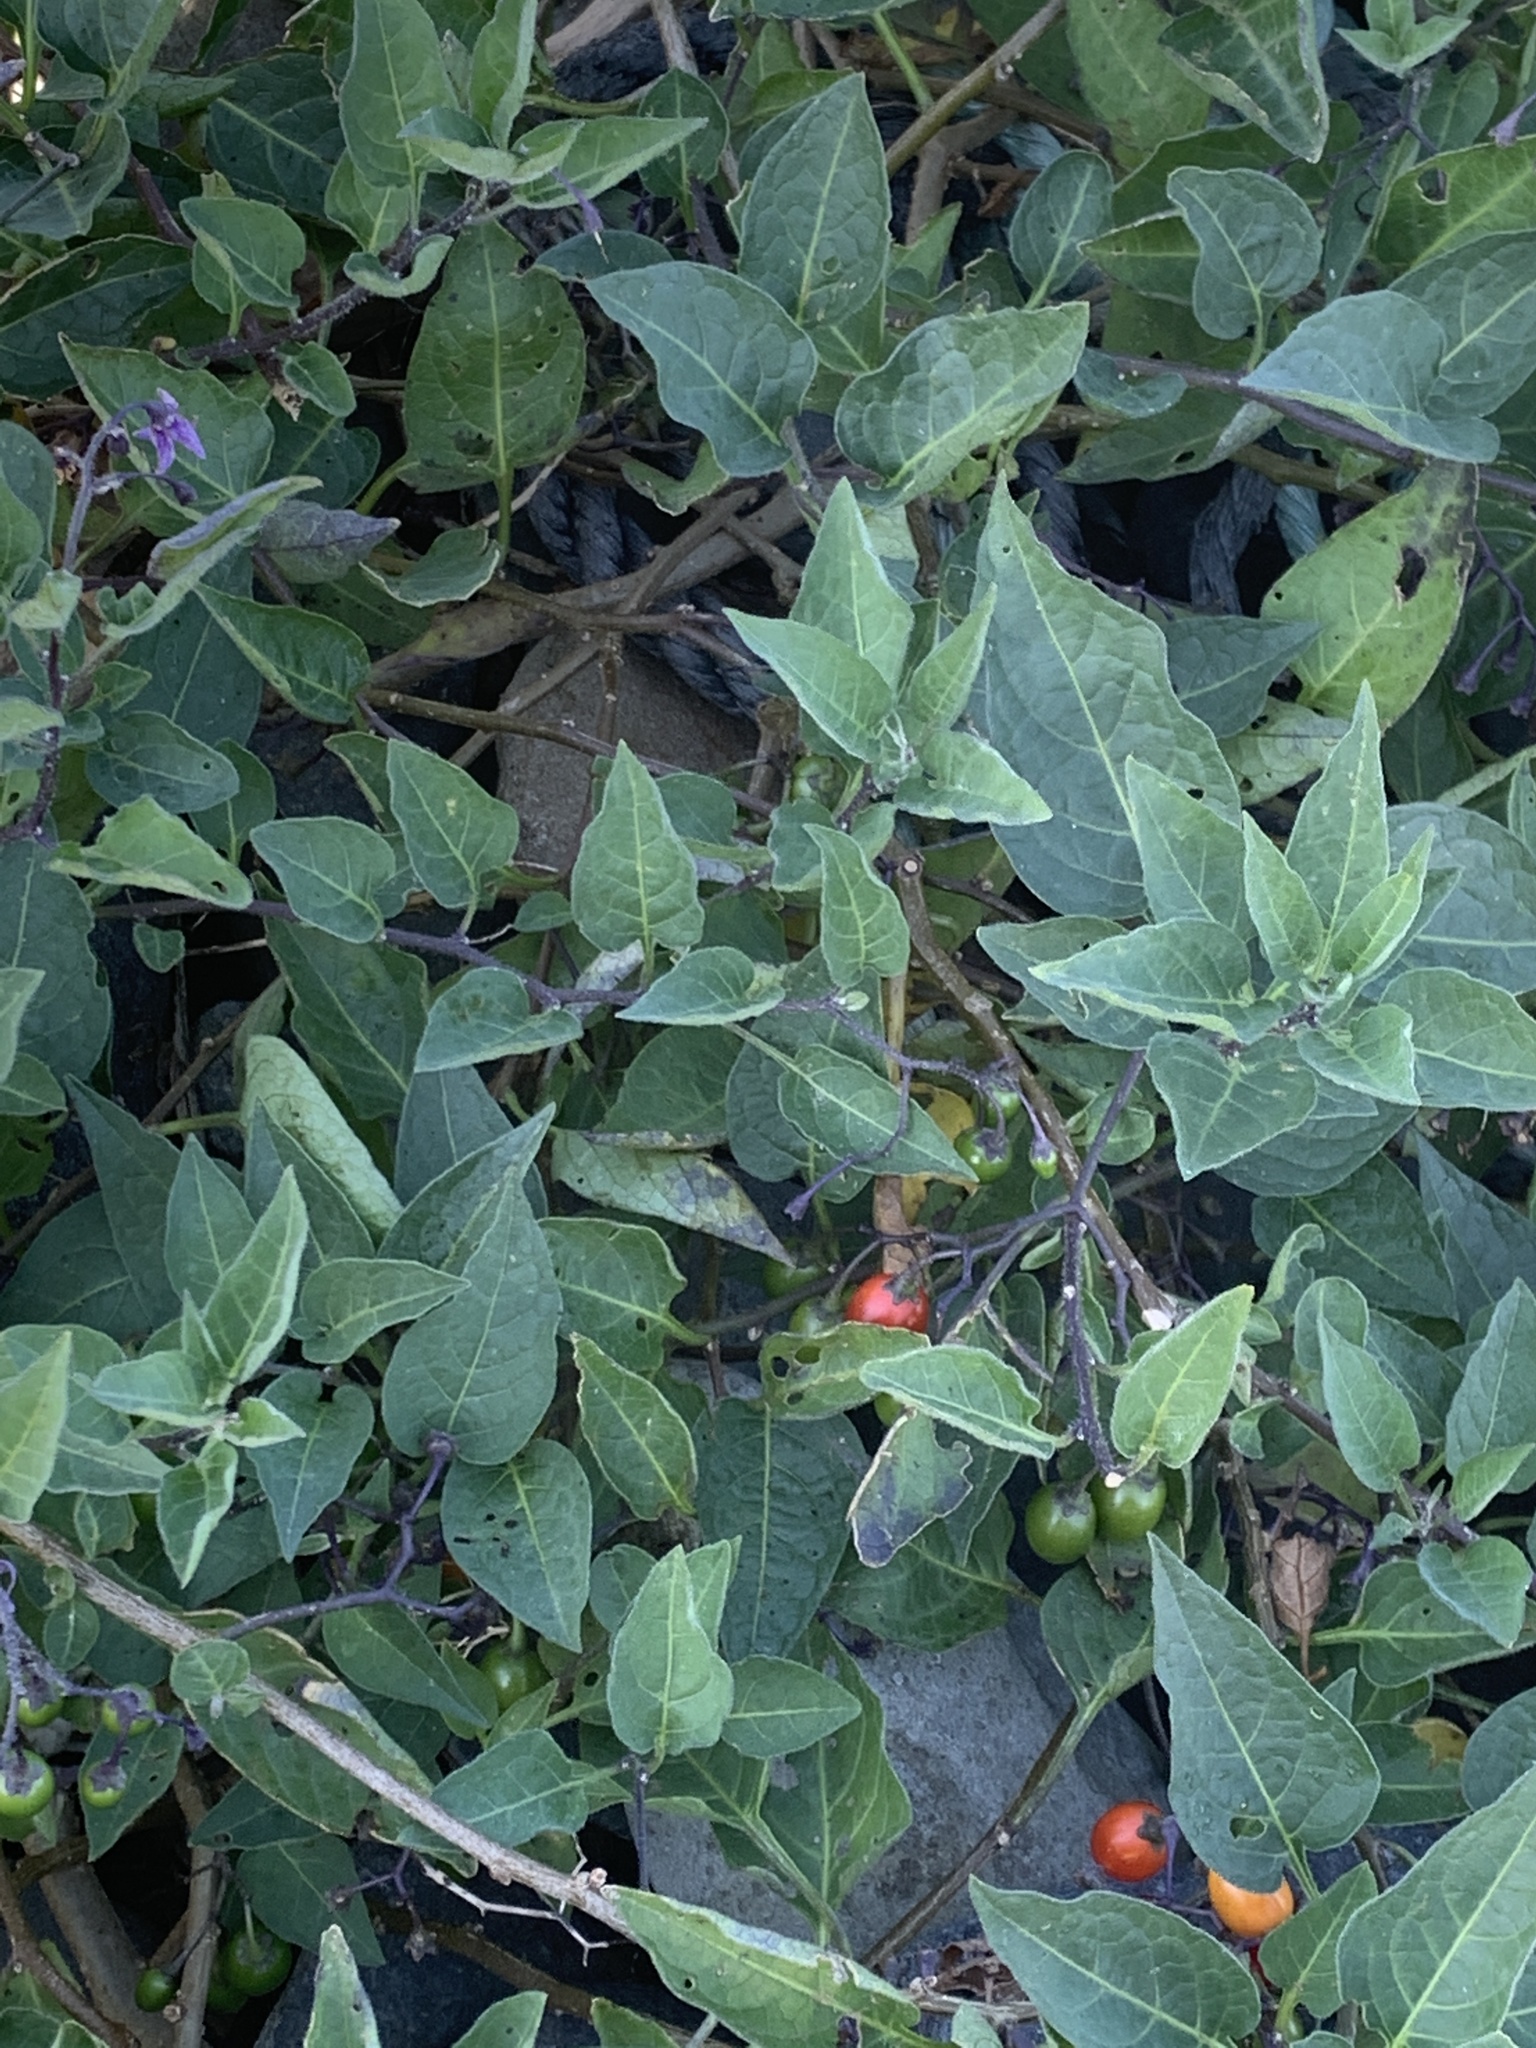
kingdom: Plantae
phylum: Tracheophyta
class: Magnoliopsida
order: Solanales
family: Solanaceae
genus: Solanum
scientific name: Solanum dulcamara
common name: Climbing nightshade
